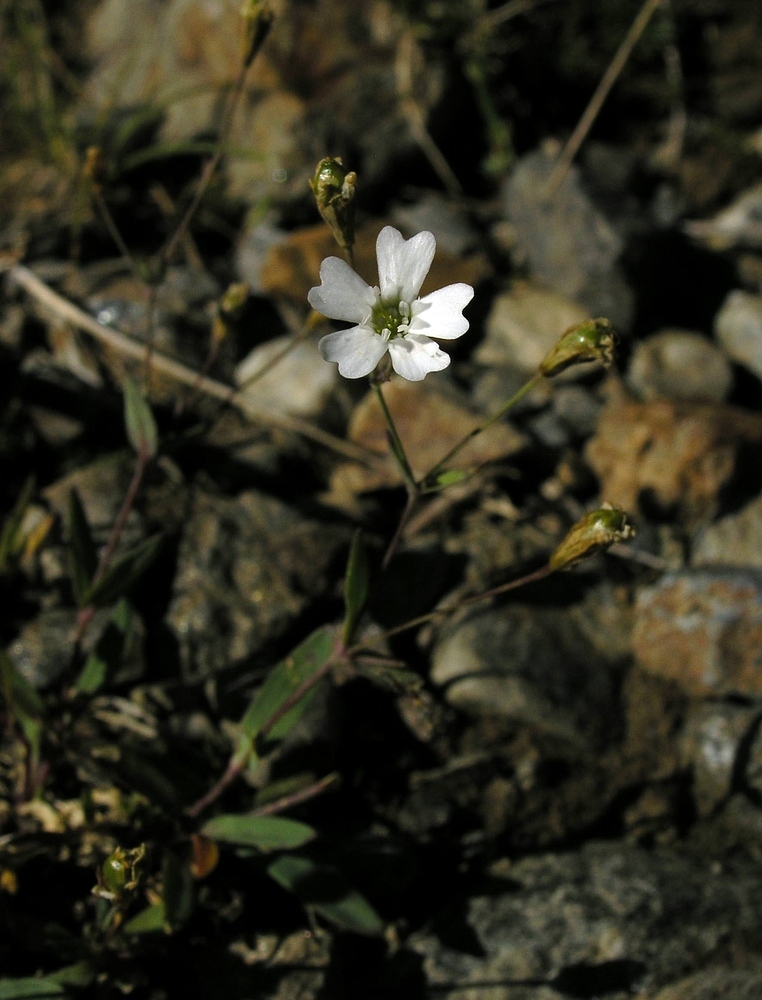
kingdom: Plantae
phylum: Tracheophyta
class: Magnoliopsida
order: Caryophyllales
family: Caryophyllaceae
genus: Atocion
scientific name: Atocion rupestre
